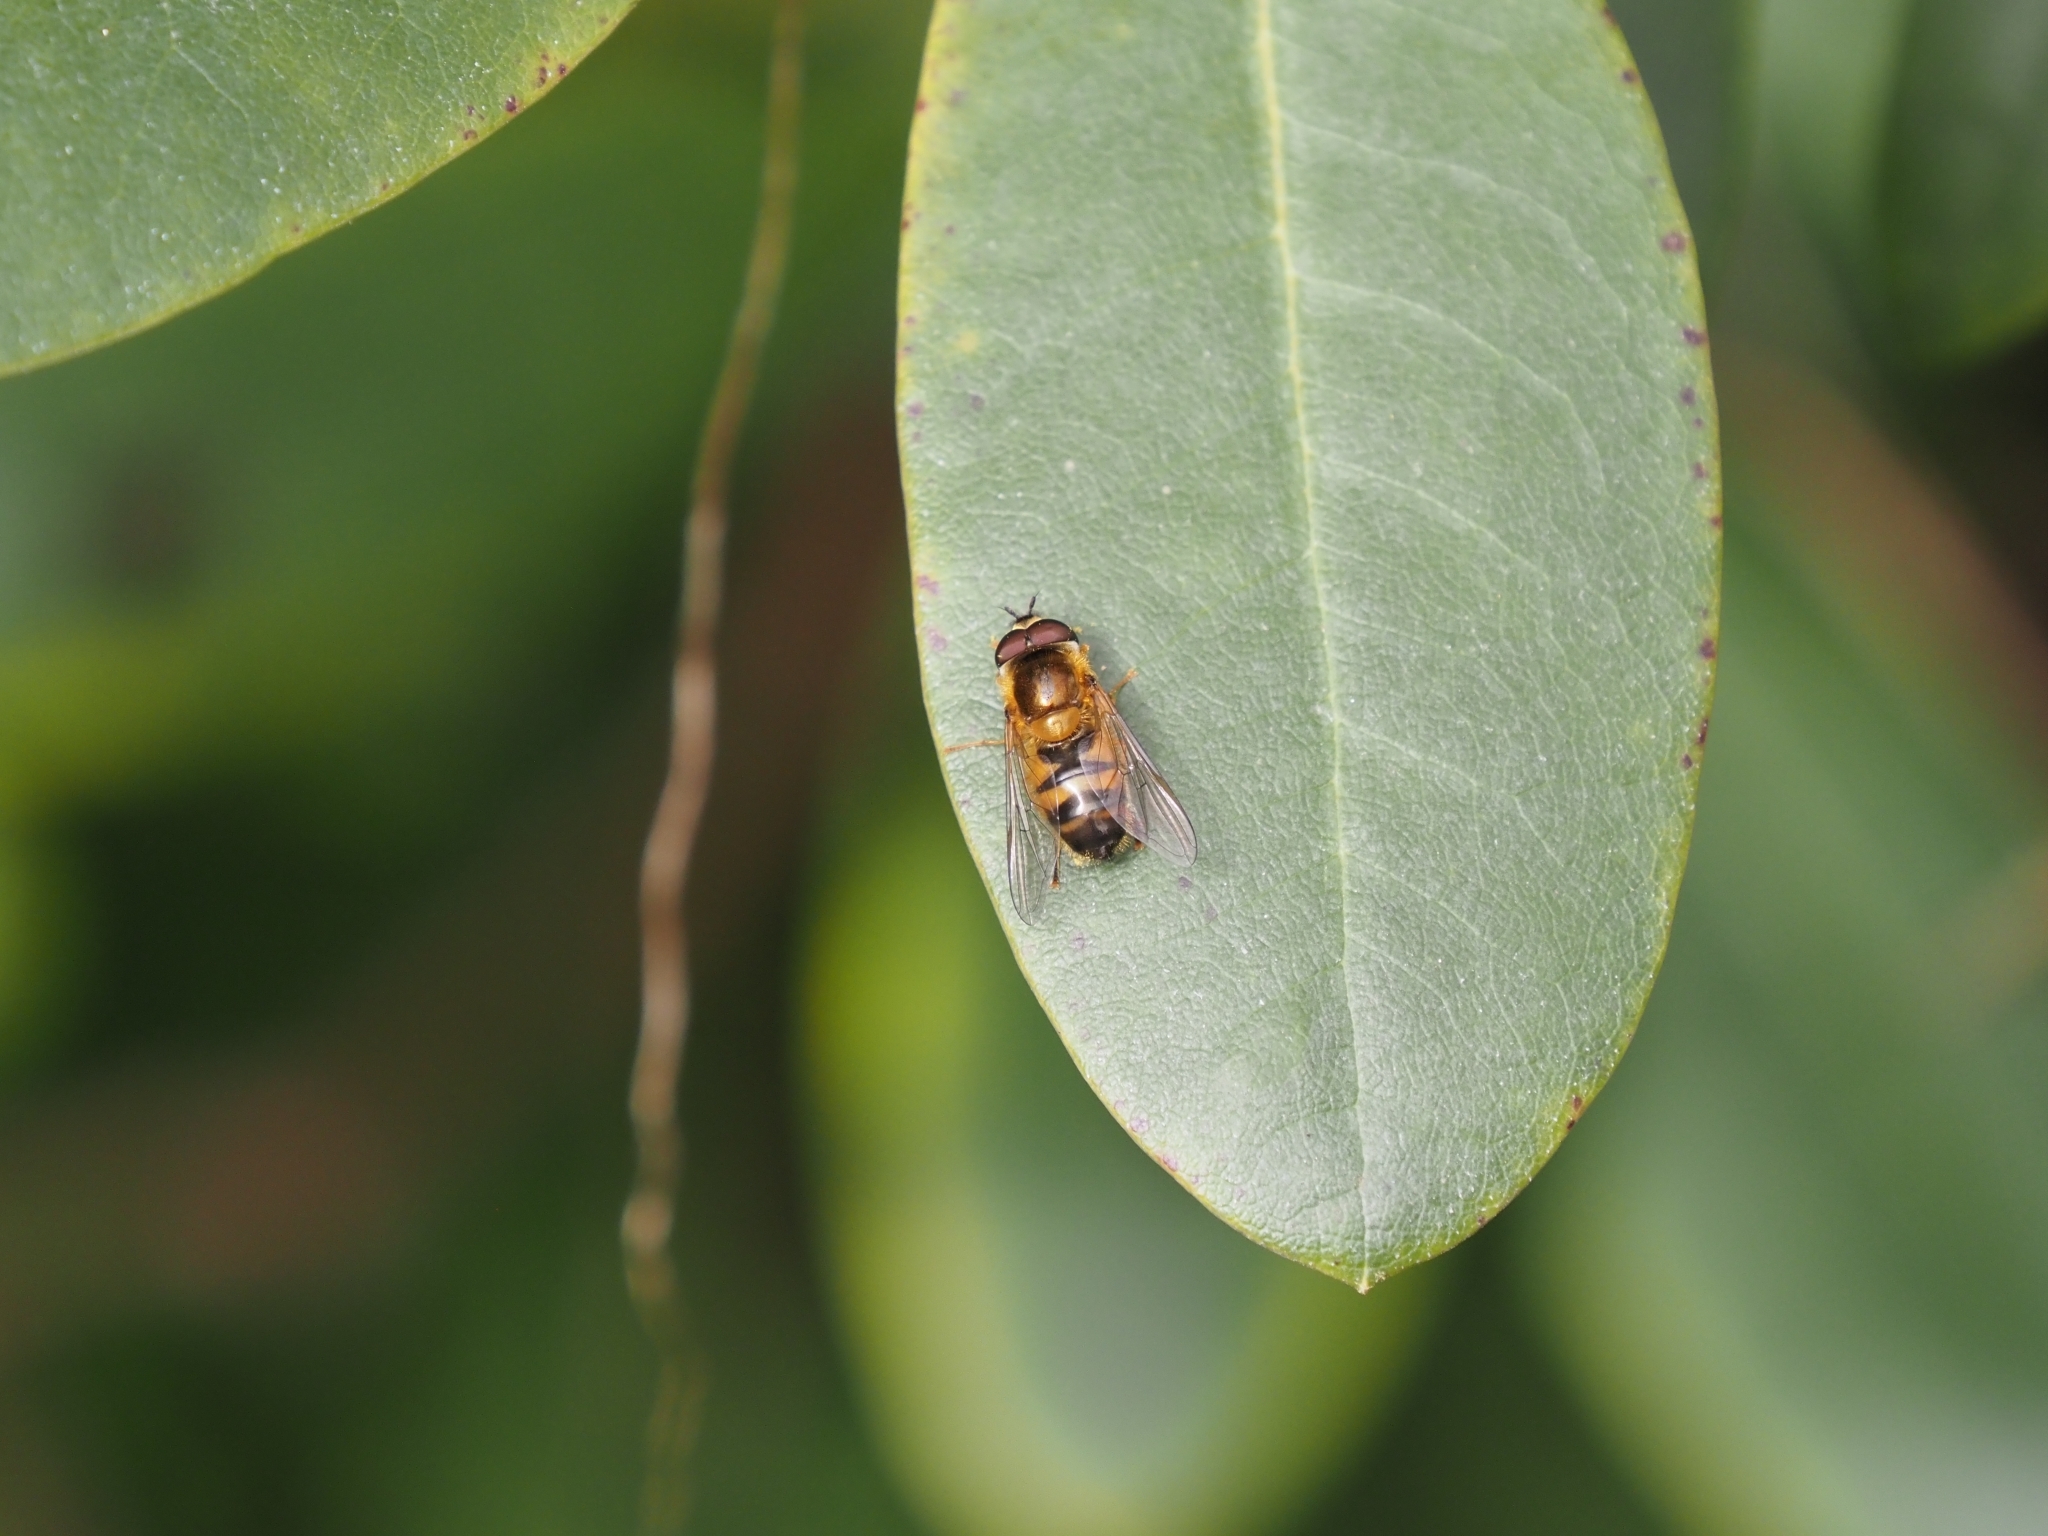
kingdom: Animalia
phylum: Arthropoda
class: Insecta
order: Diptera
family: Syrphidae
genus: Epistrophe
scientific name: Epistrophe eligans
